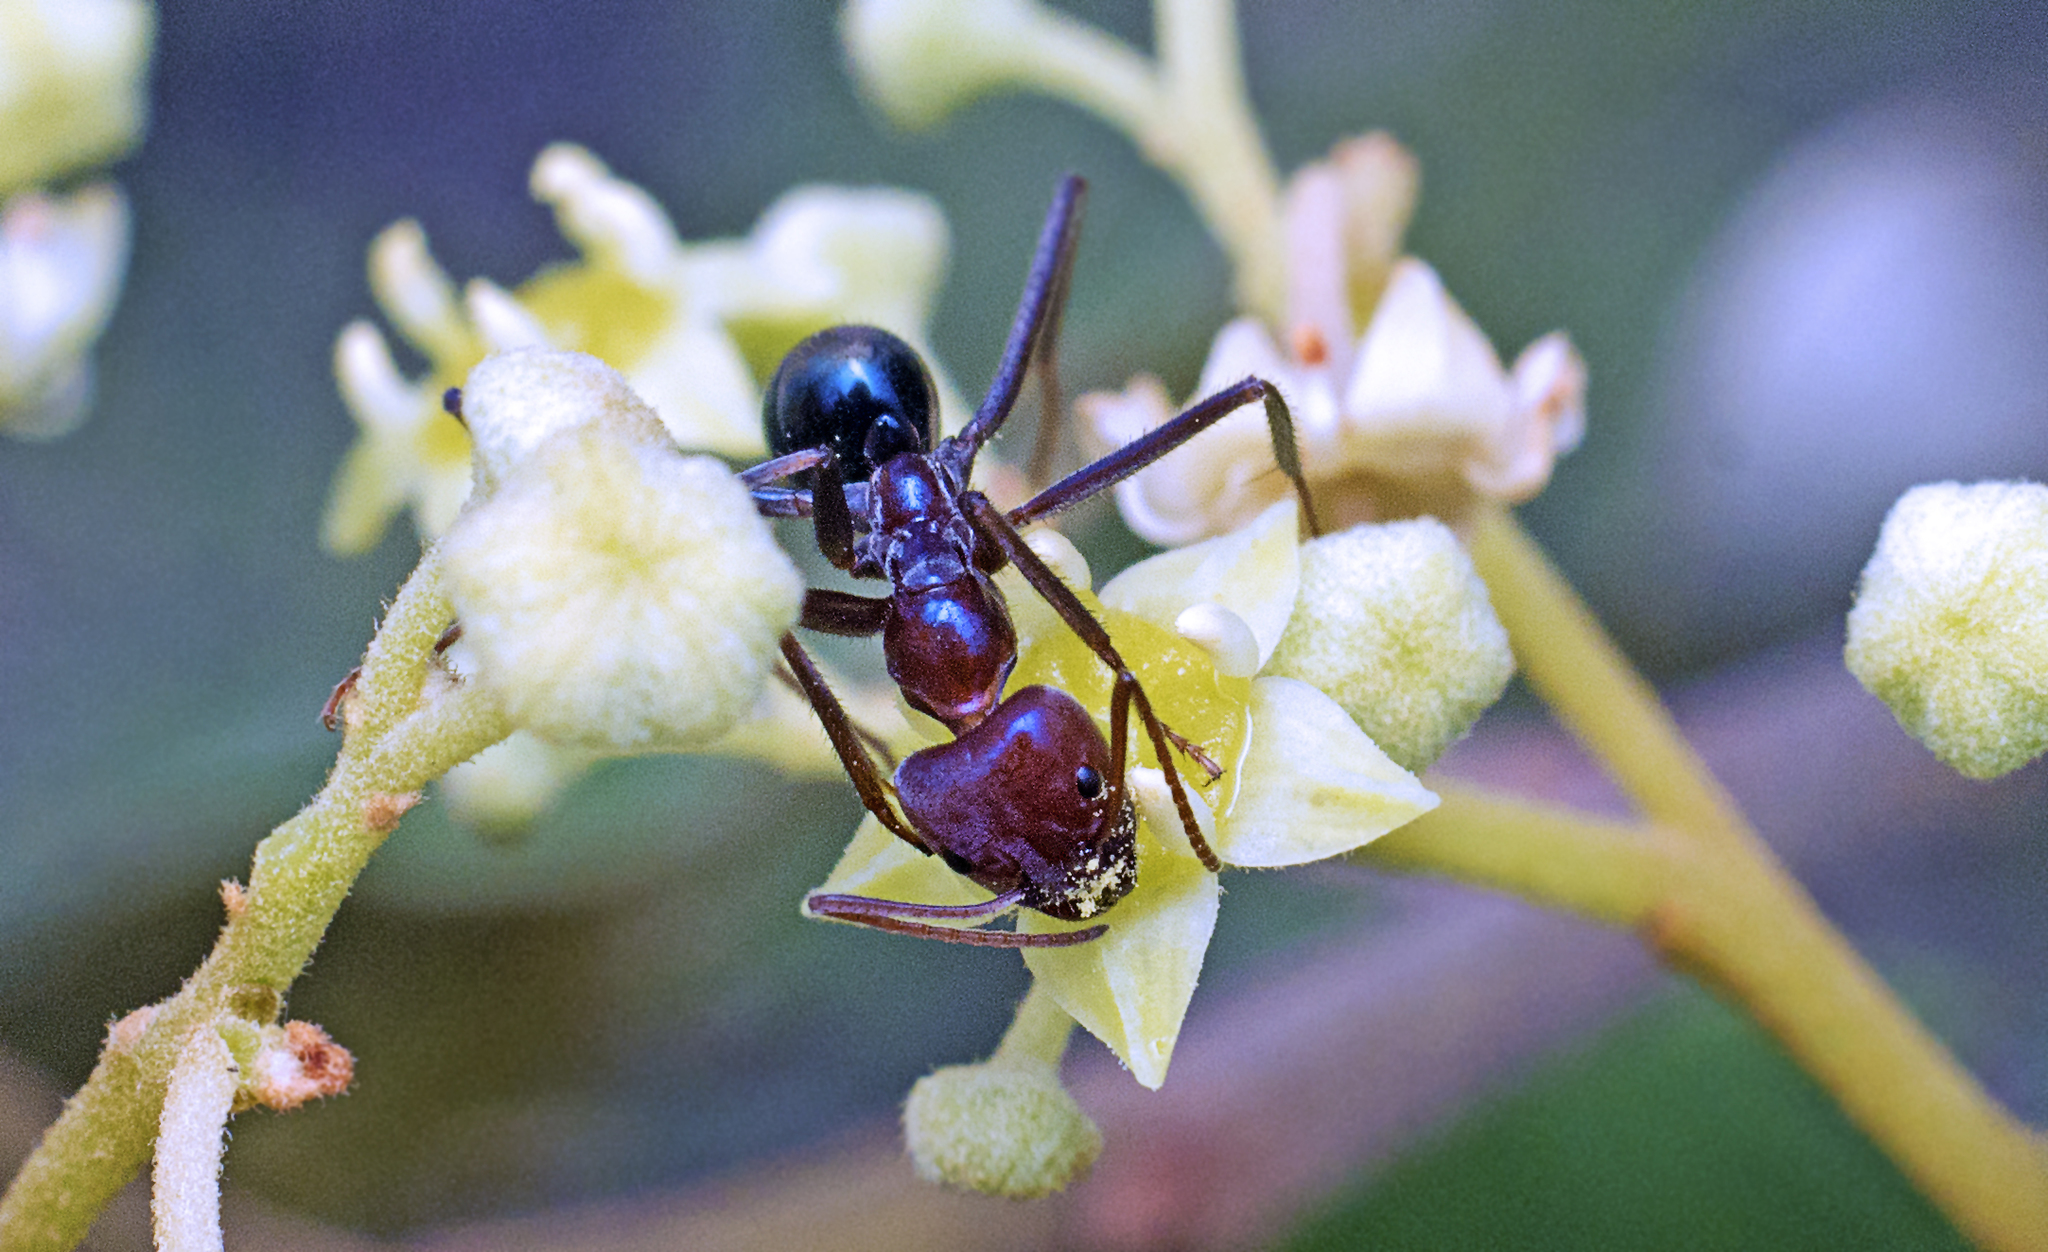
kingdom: Animalia
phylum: Arthropoda
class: Insecta
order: Hymenoptera
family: Formicidae
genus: Iridomyrmex
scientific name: Iridomyrmex purpureus
